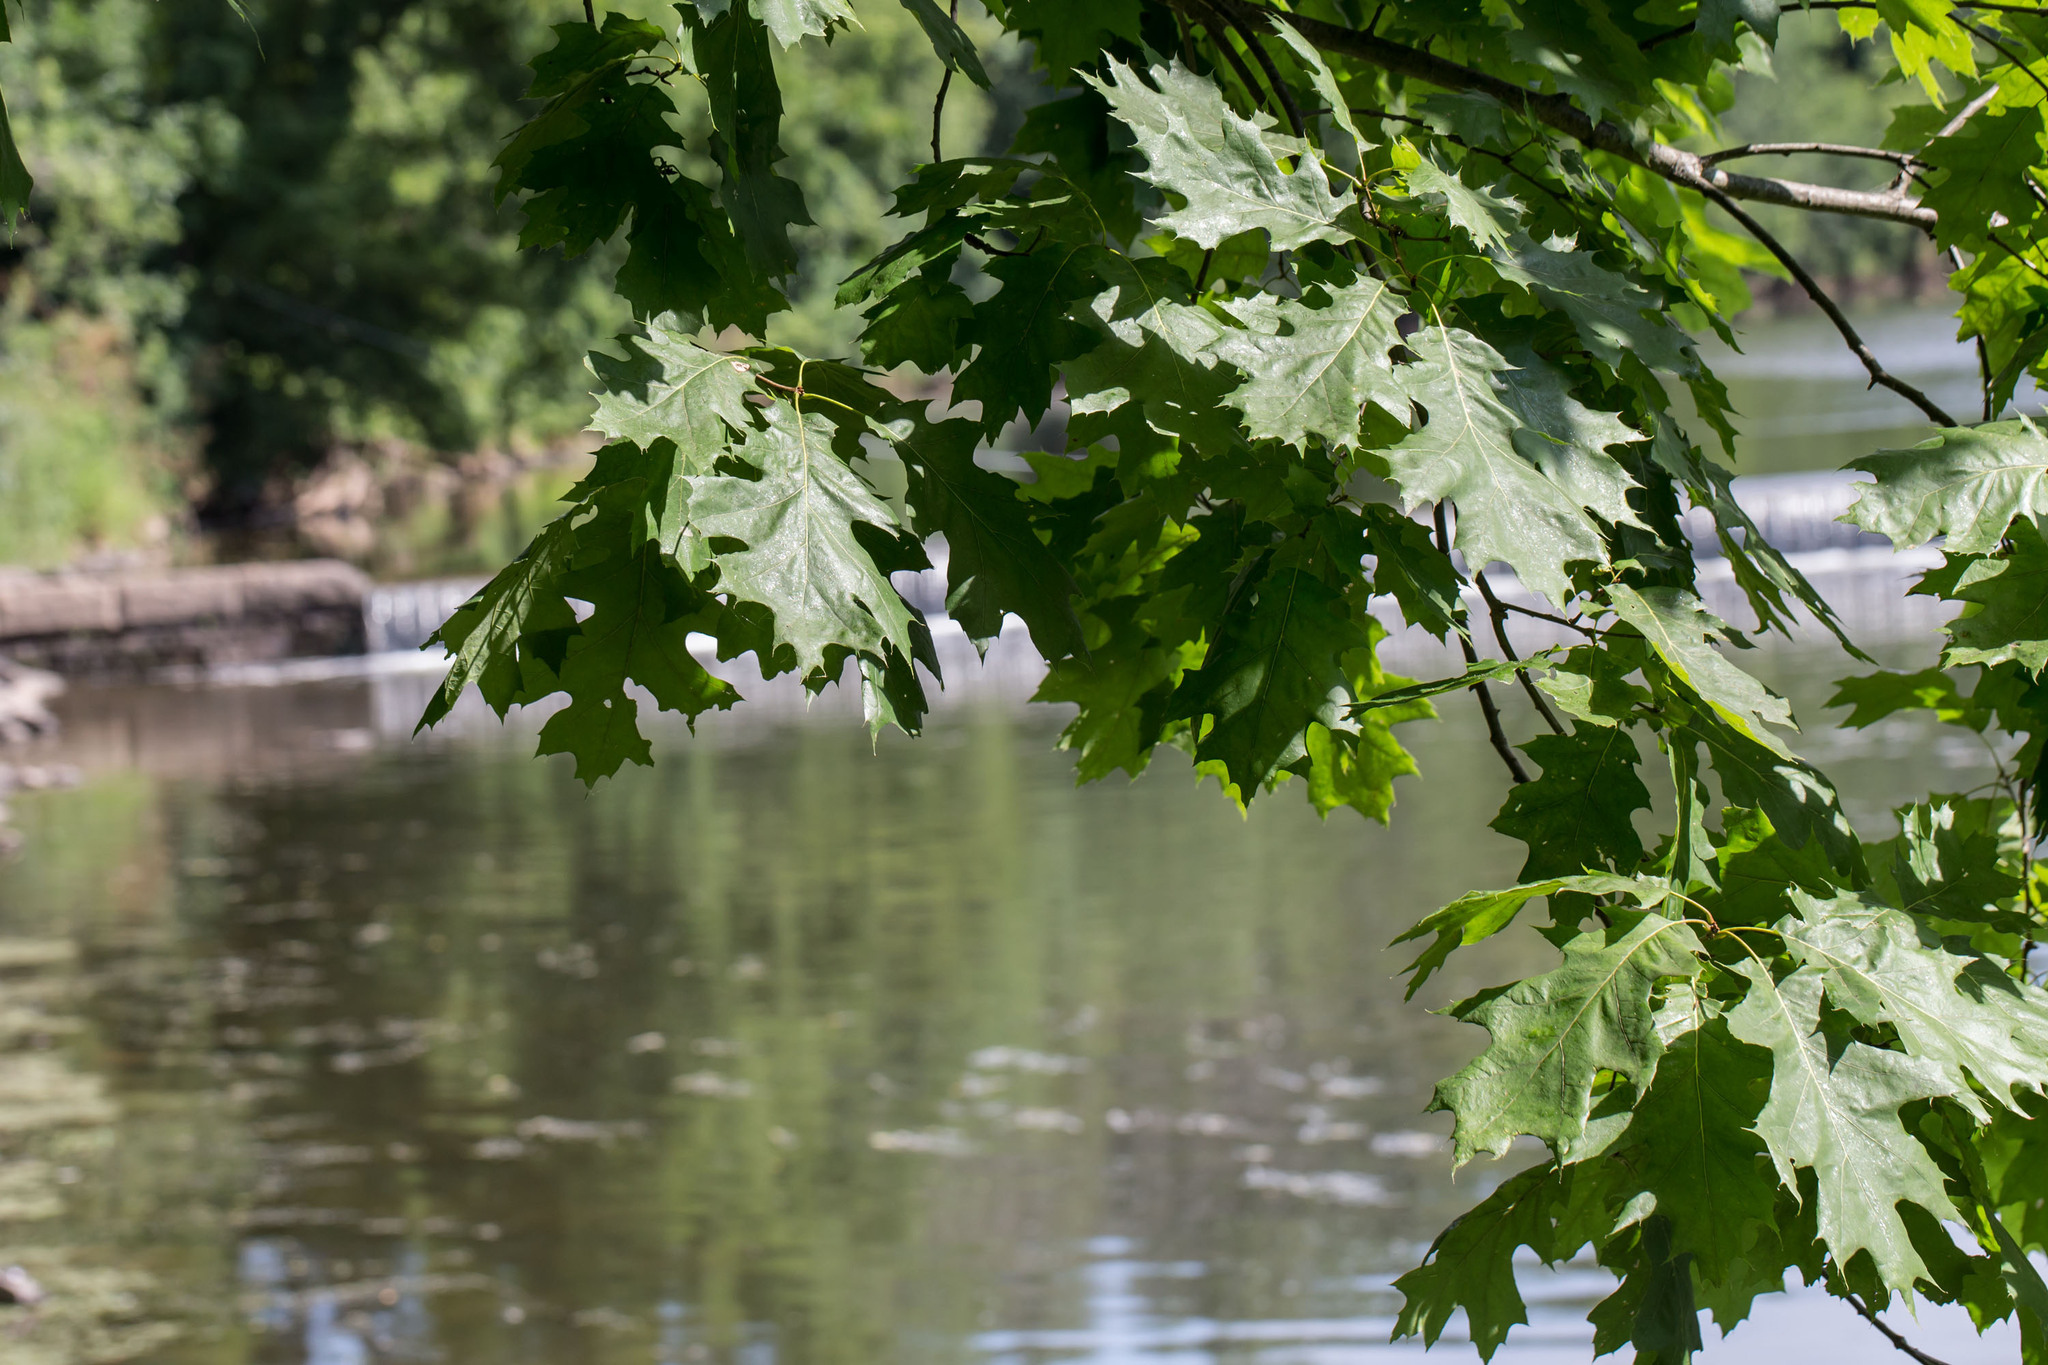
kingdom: Plantae
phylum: Tracheophyta
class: Magnoliopsida
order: Fagales
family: Fagaceae
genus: Quercus
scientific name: Quercus rubra
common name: Red oak
